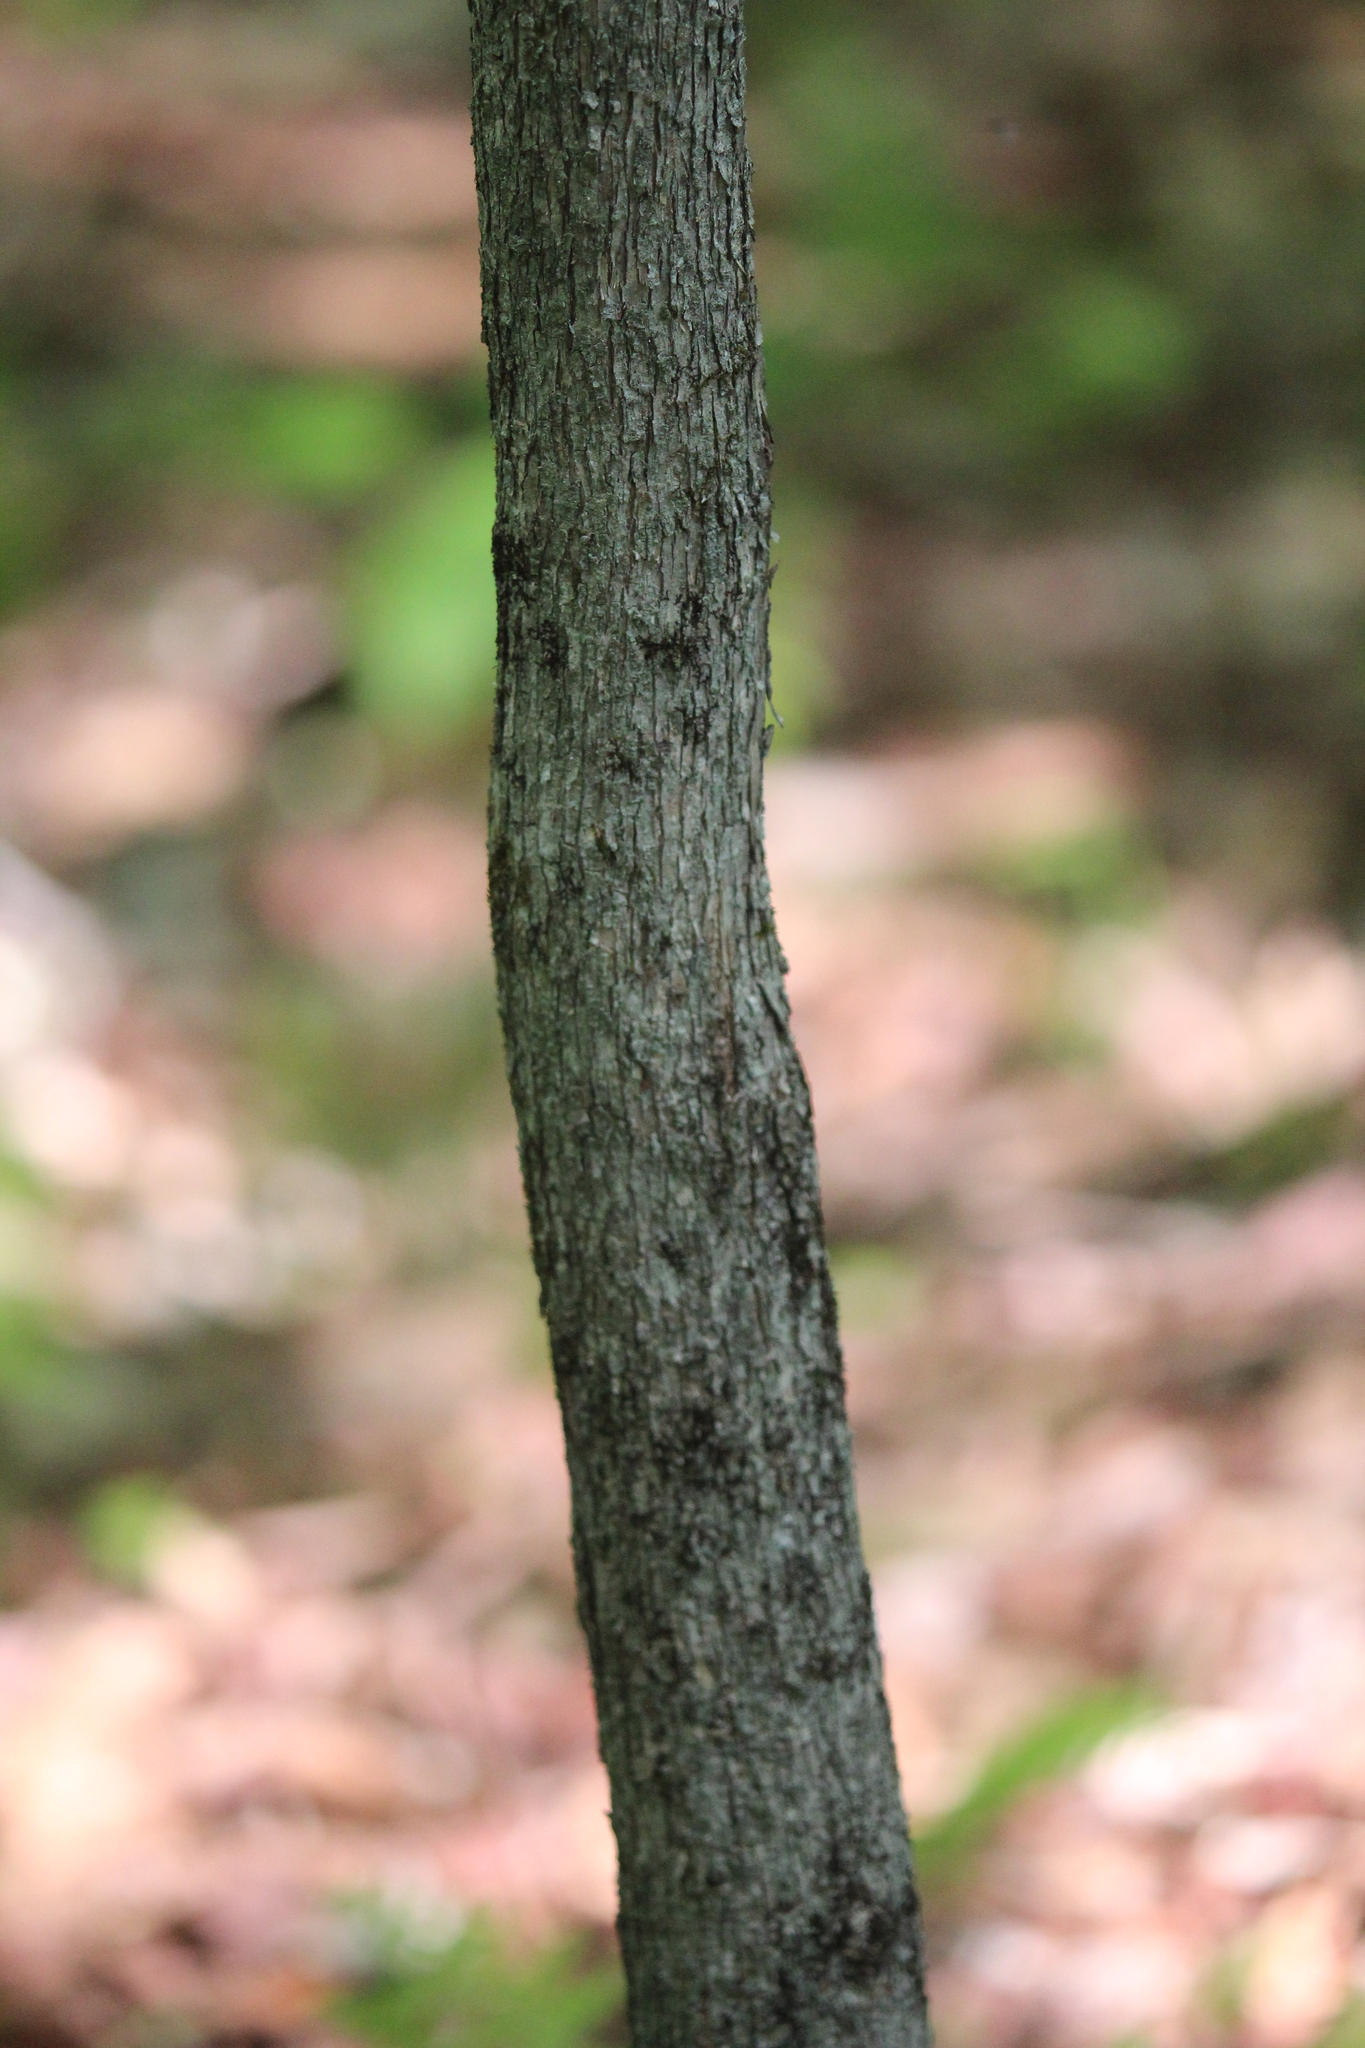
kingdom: Plantae
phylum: Tracheophyta
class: Magnoliopsida
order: Fagales
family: Betulaceae
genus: Ostrya
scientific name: Ostrya virginiana
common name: Ironwood
